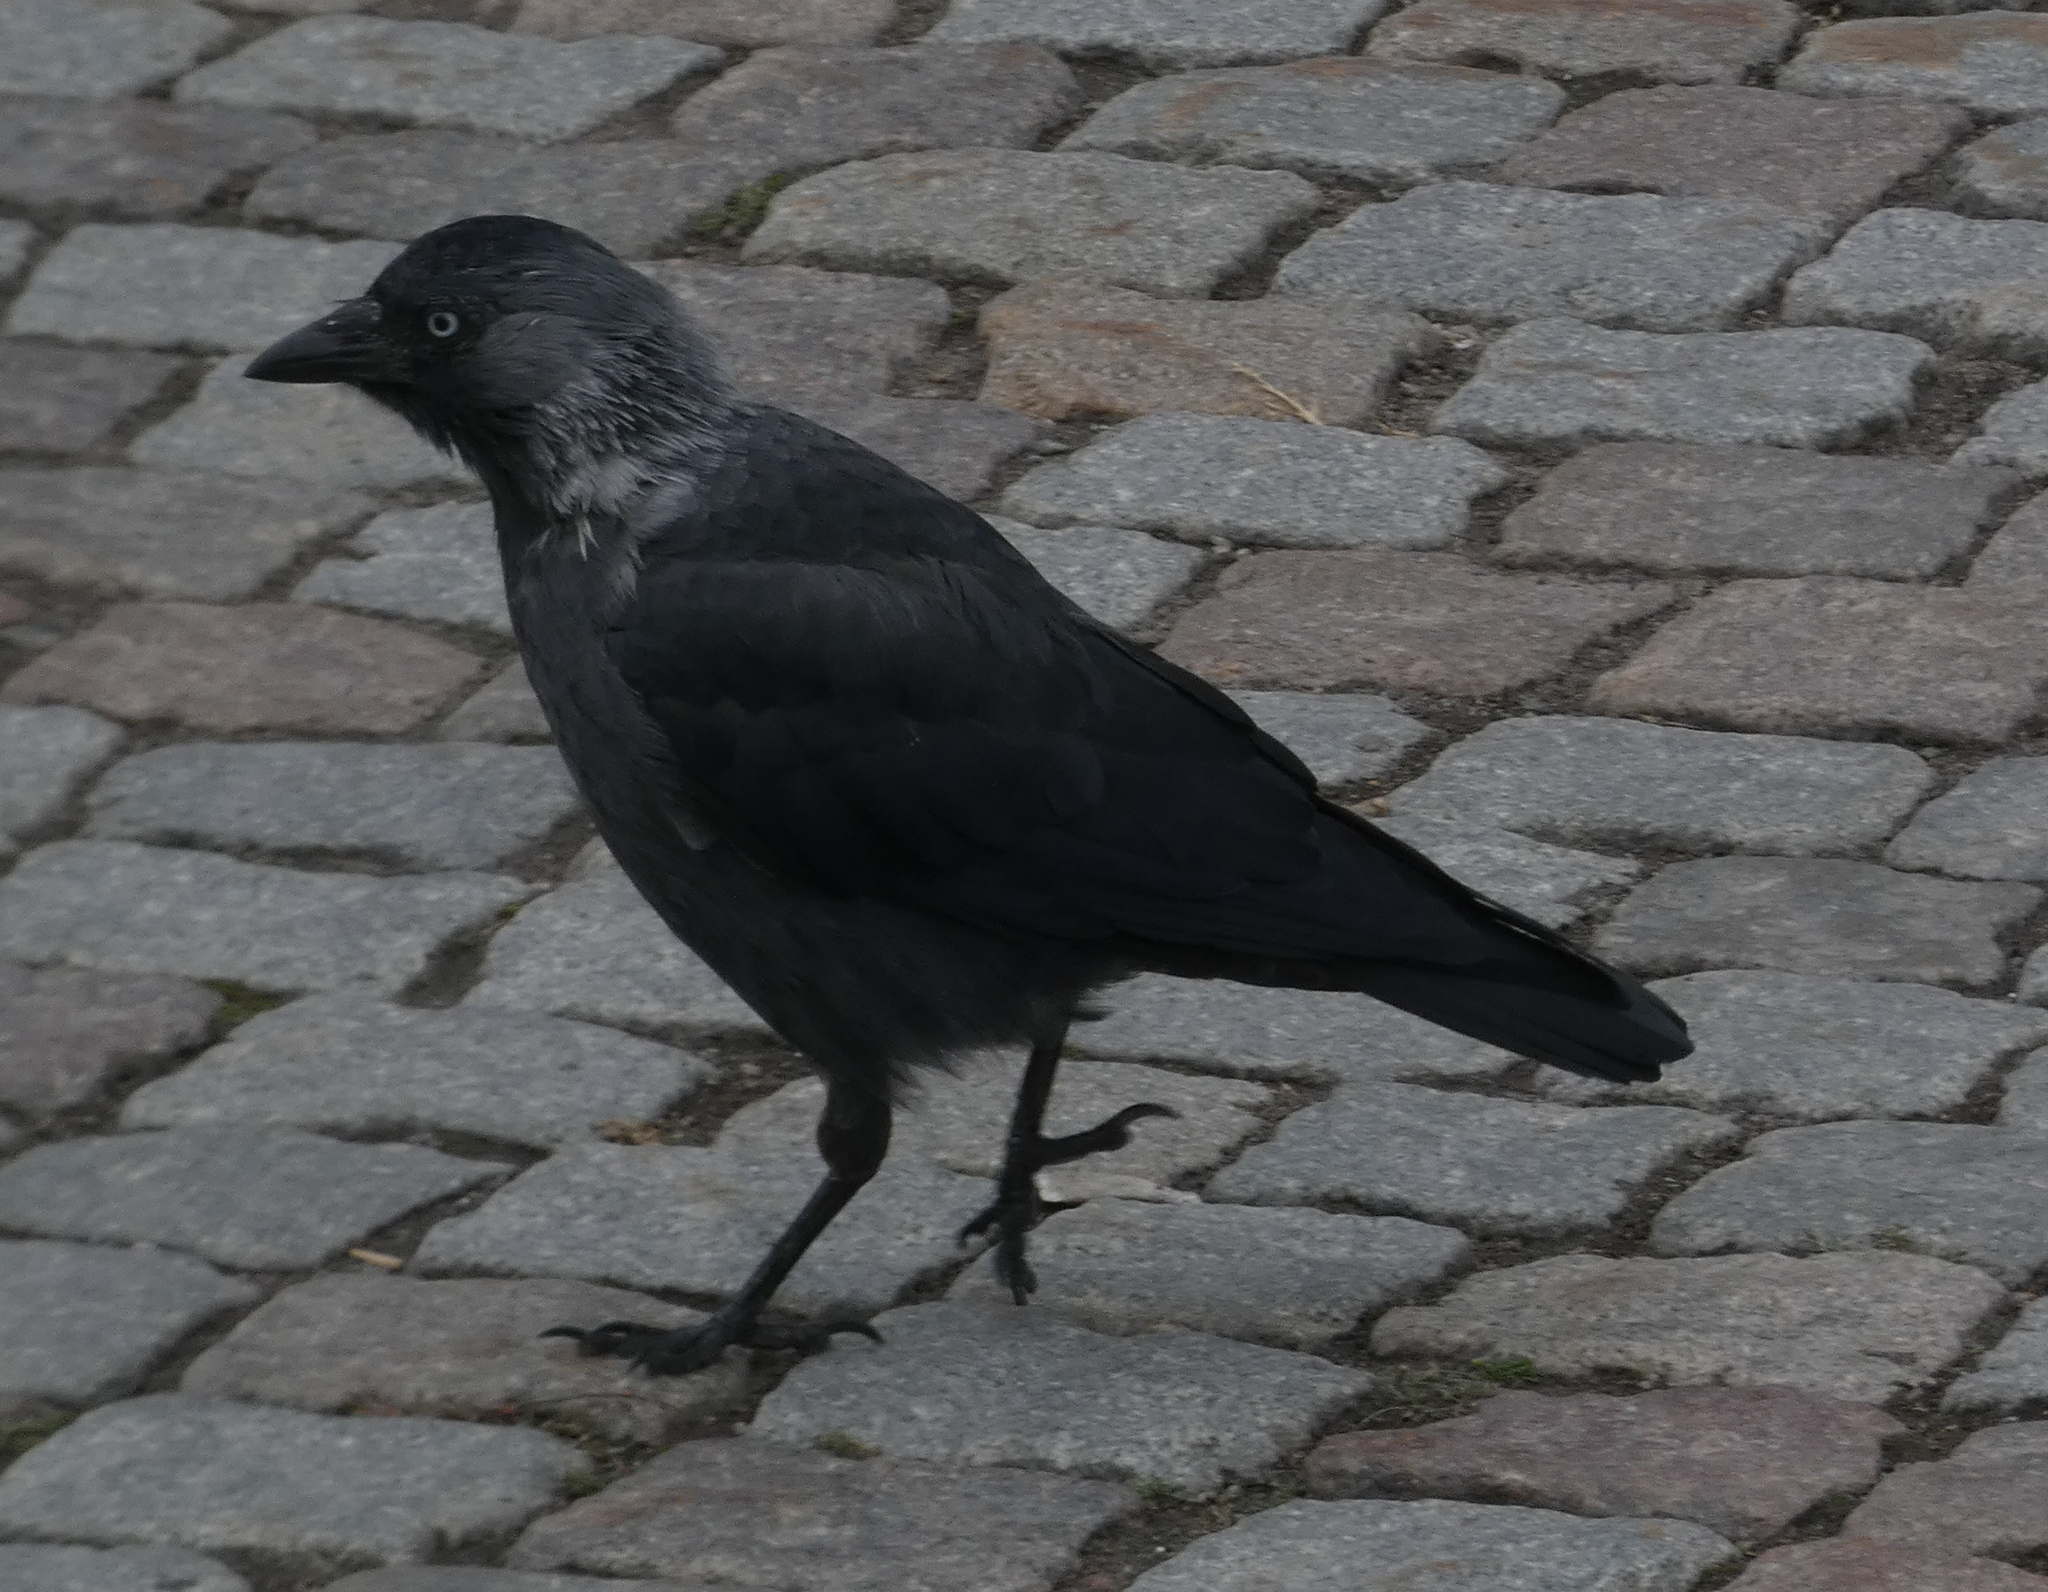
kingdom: Animalia
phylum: Chordata
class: Aves
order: Passeriformes
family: Corvidae
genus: Coloeus
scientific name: Coloeus monedula
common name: Western jackdaw
